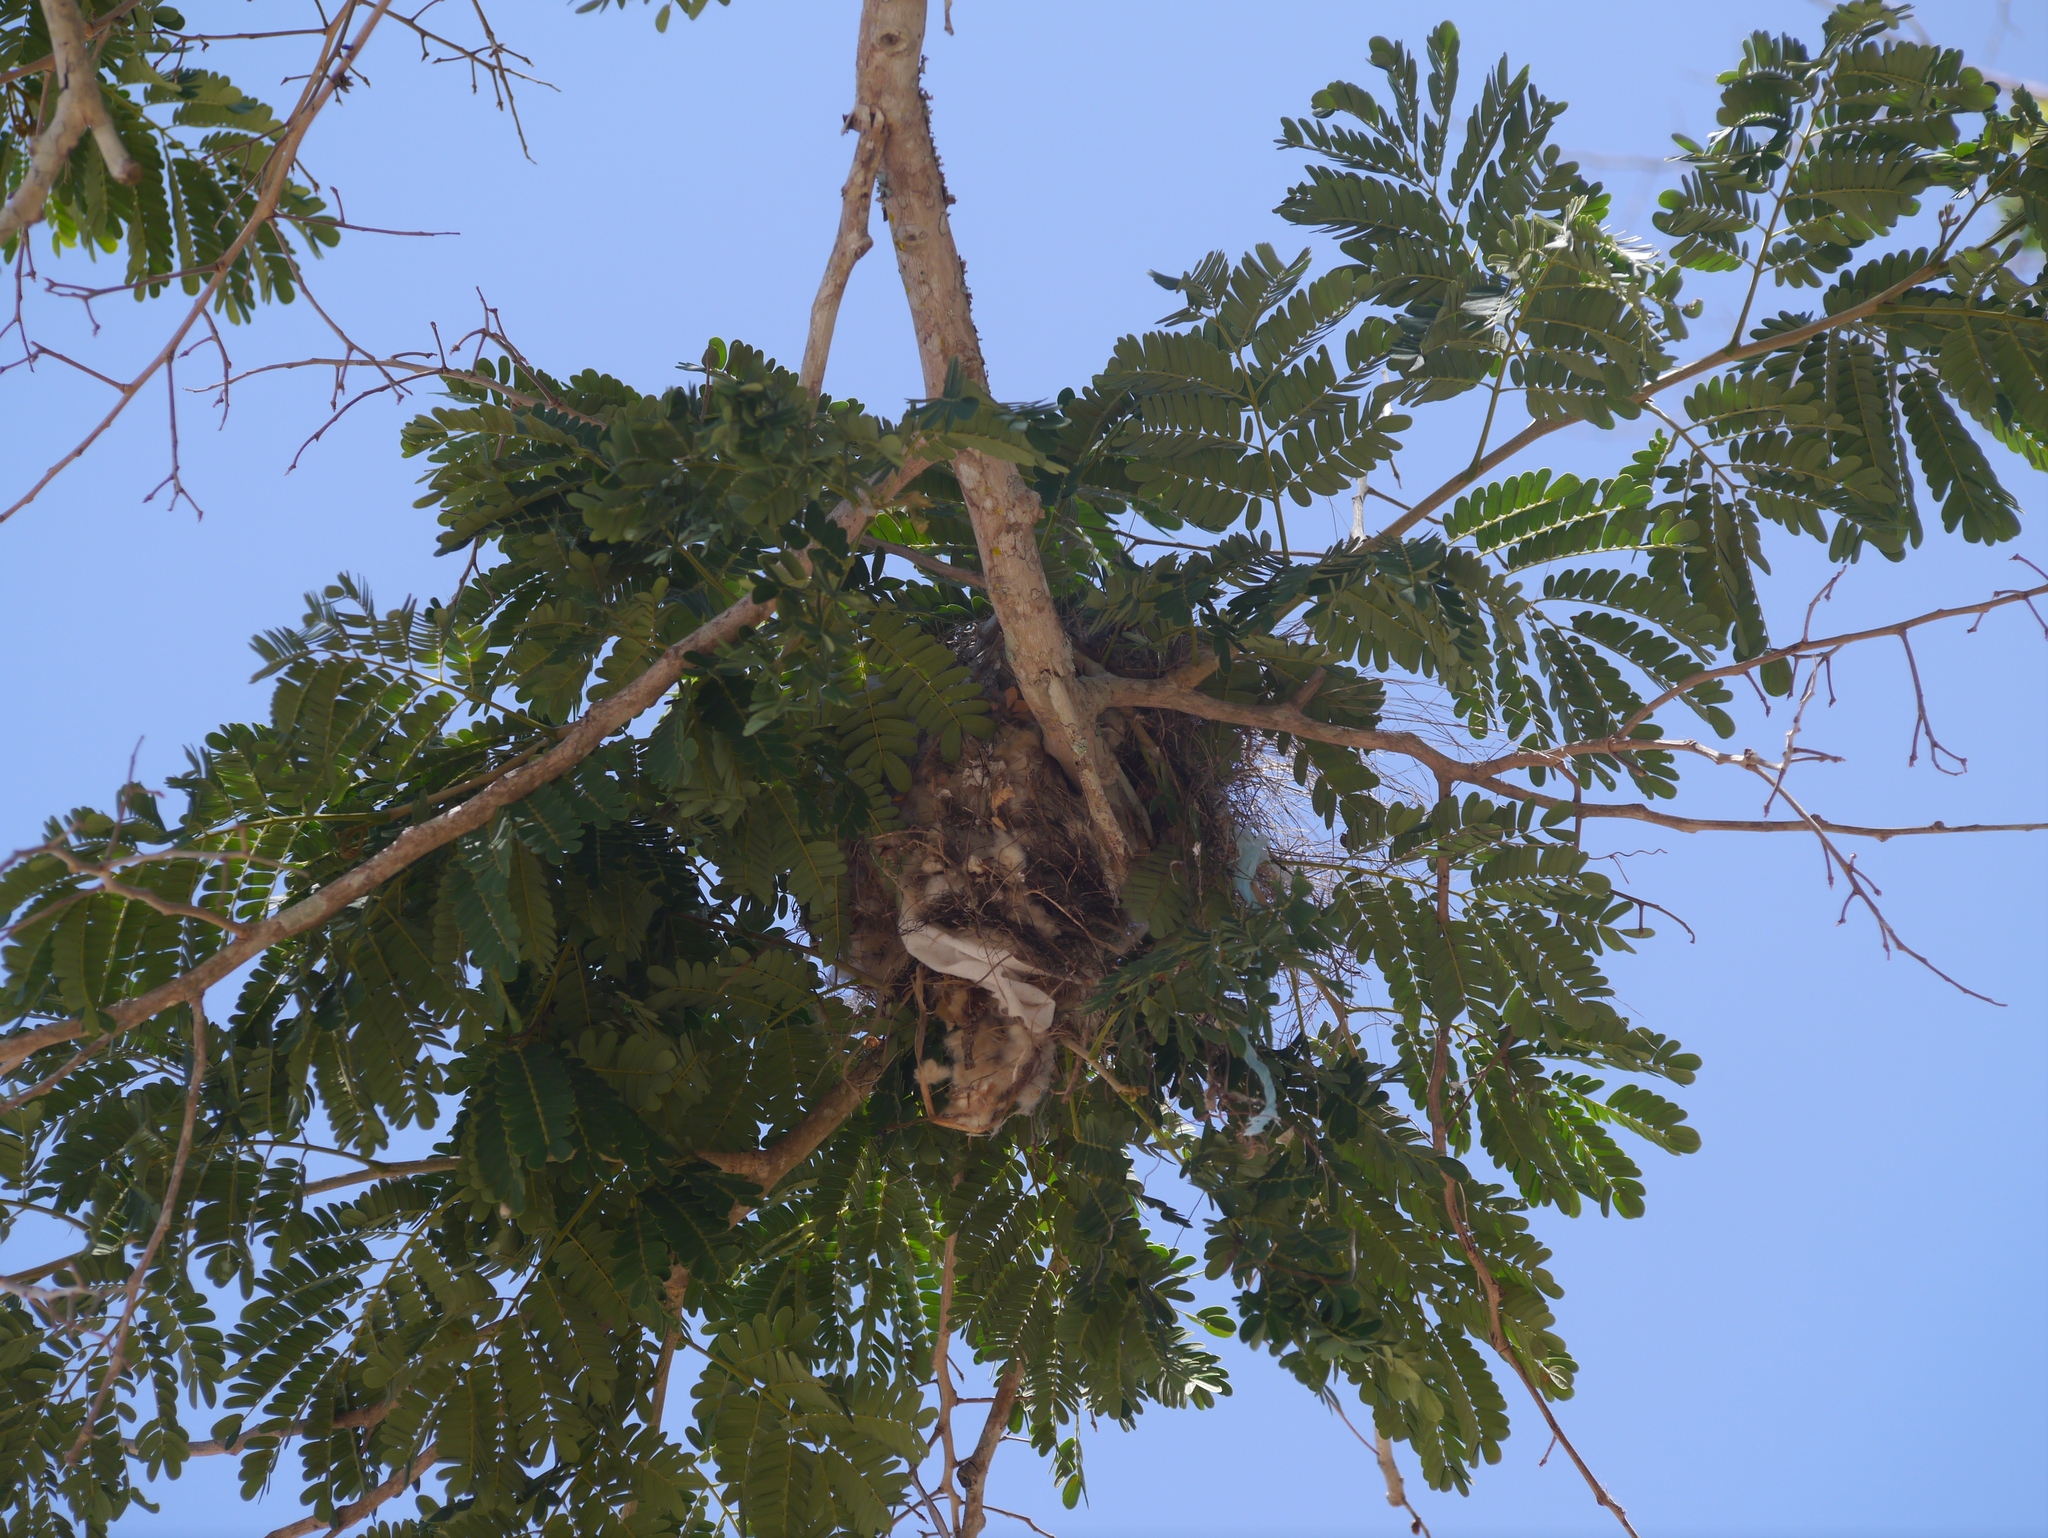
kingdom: Animalia
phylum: Chordata
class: Aves
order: Passeriformes
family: Tyrannidae
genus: Myiozetetes
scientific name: Myiozetetes similis
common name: Social flycatcher
